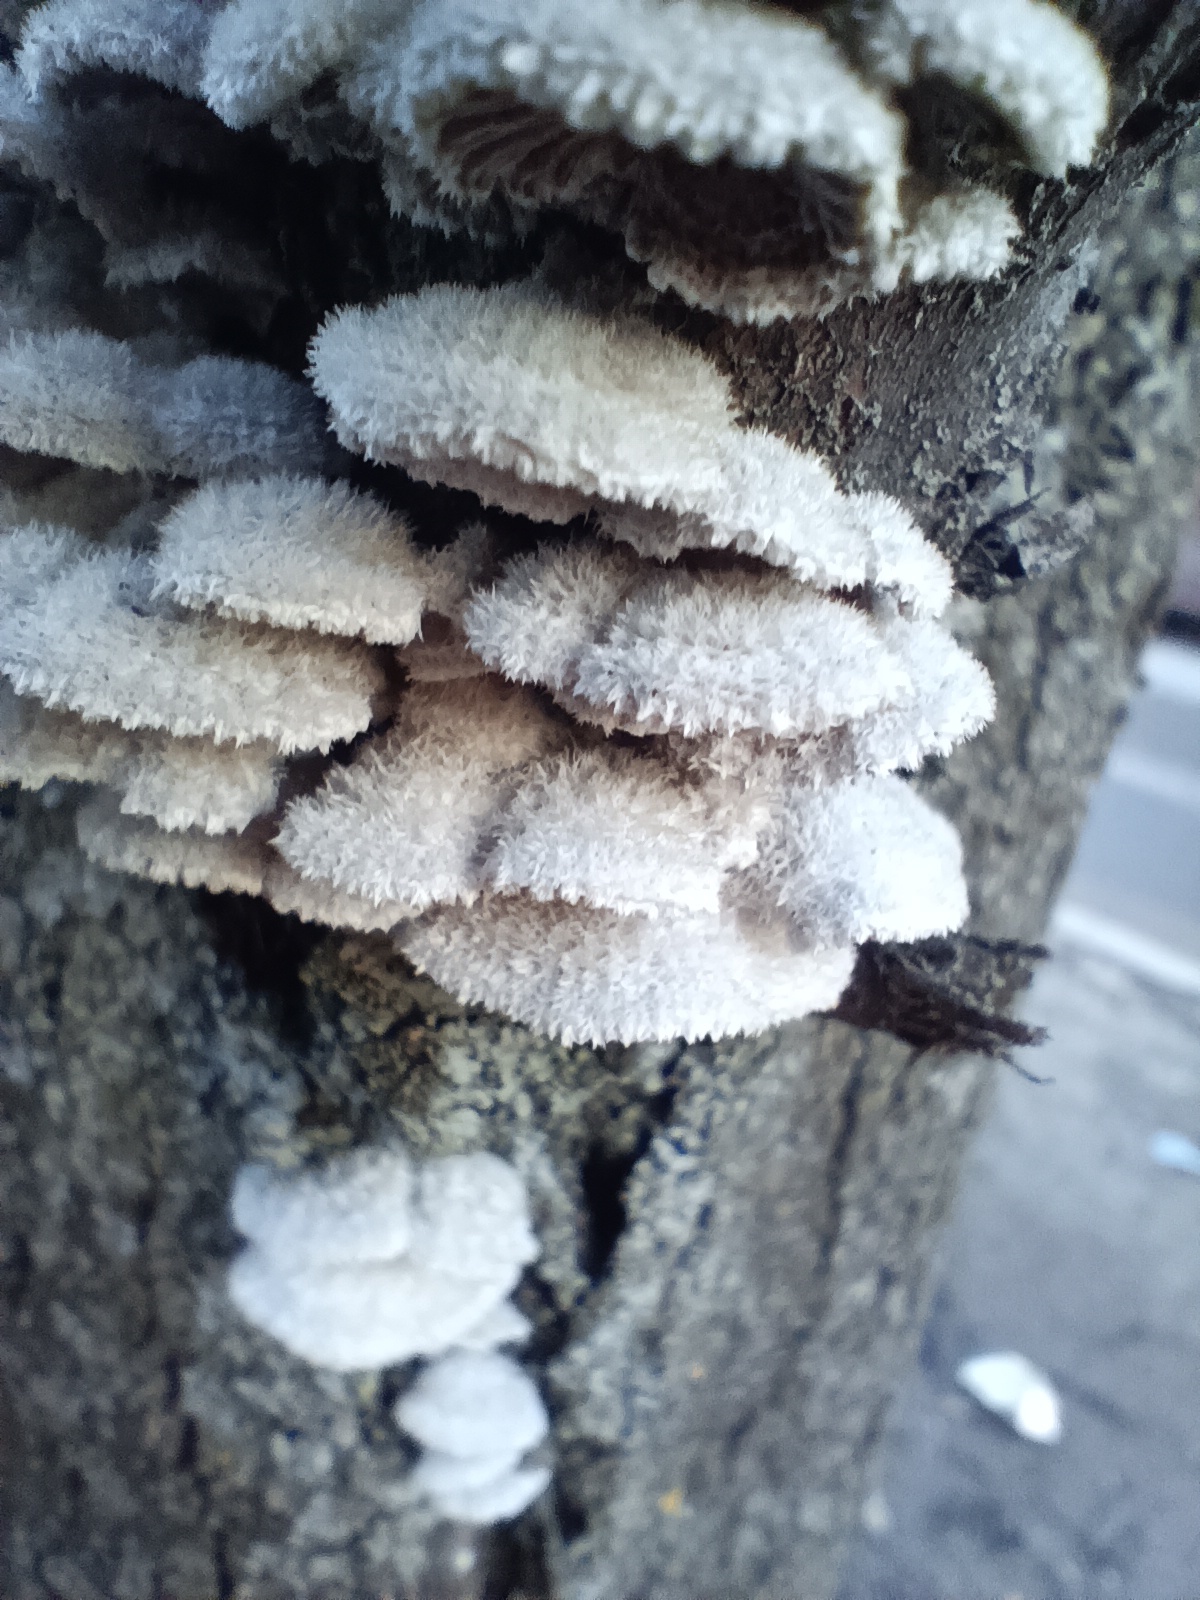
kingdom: Fungi
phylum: Basidiomycota
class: Agaricomycetes
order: Agaricales
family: Schizophyllaceae
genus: Schizophyllum
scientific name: Schizophyllum commune
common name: Common porecrust
